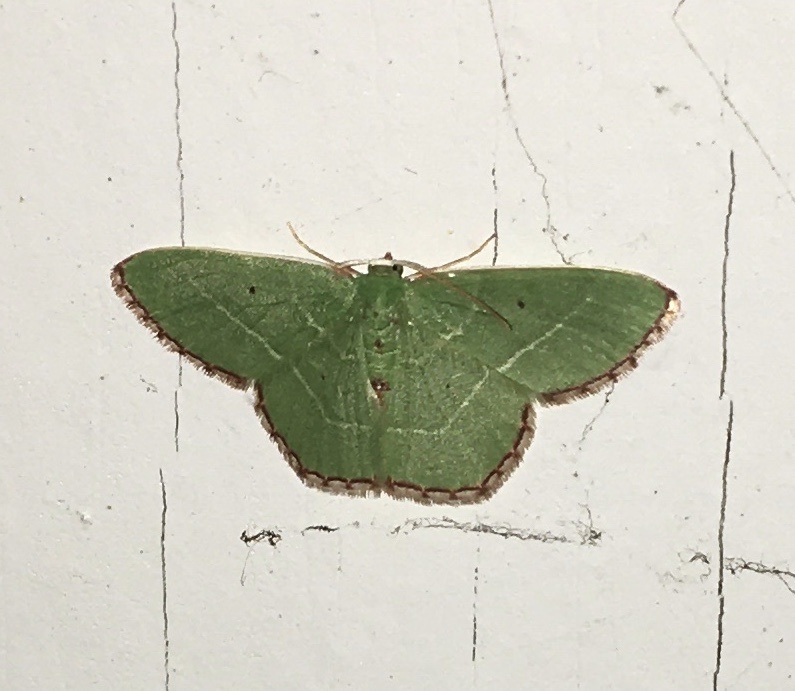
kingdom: Animalia
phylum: Arthropoda
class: Insecta
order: Lepidoptera
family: Geometridae
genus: Nemoria
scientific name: Nemoria saturiba
